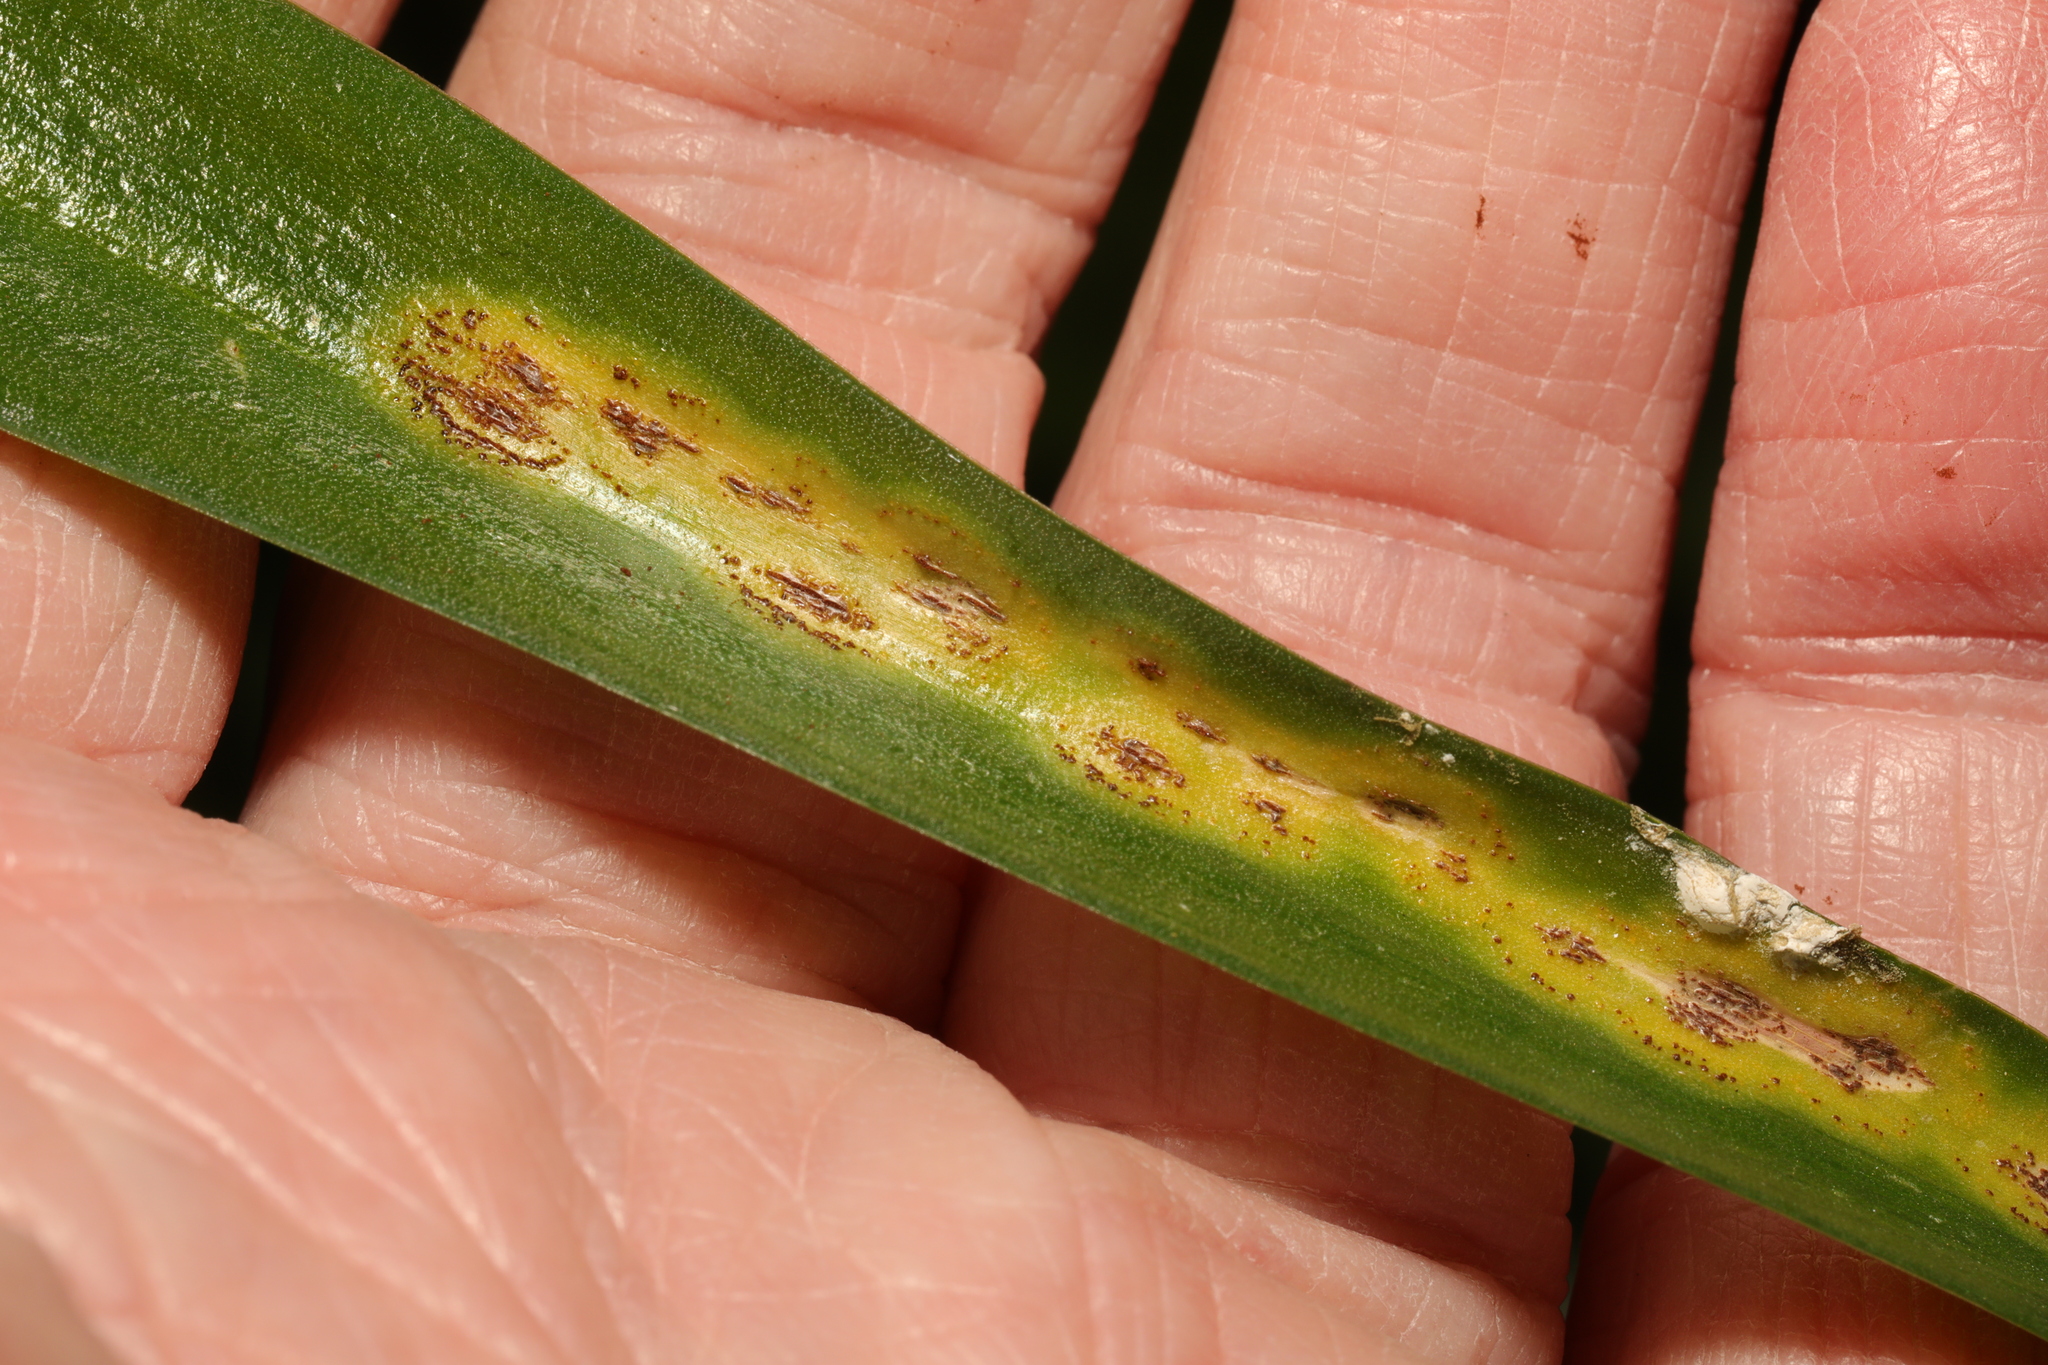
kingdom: Fungi
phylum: Basidiomycota
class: Pucciniomycetes
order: Pucciniales
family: Pucciniaceae
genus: Uromyces
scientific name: Uromyces hyacinthi
